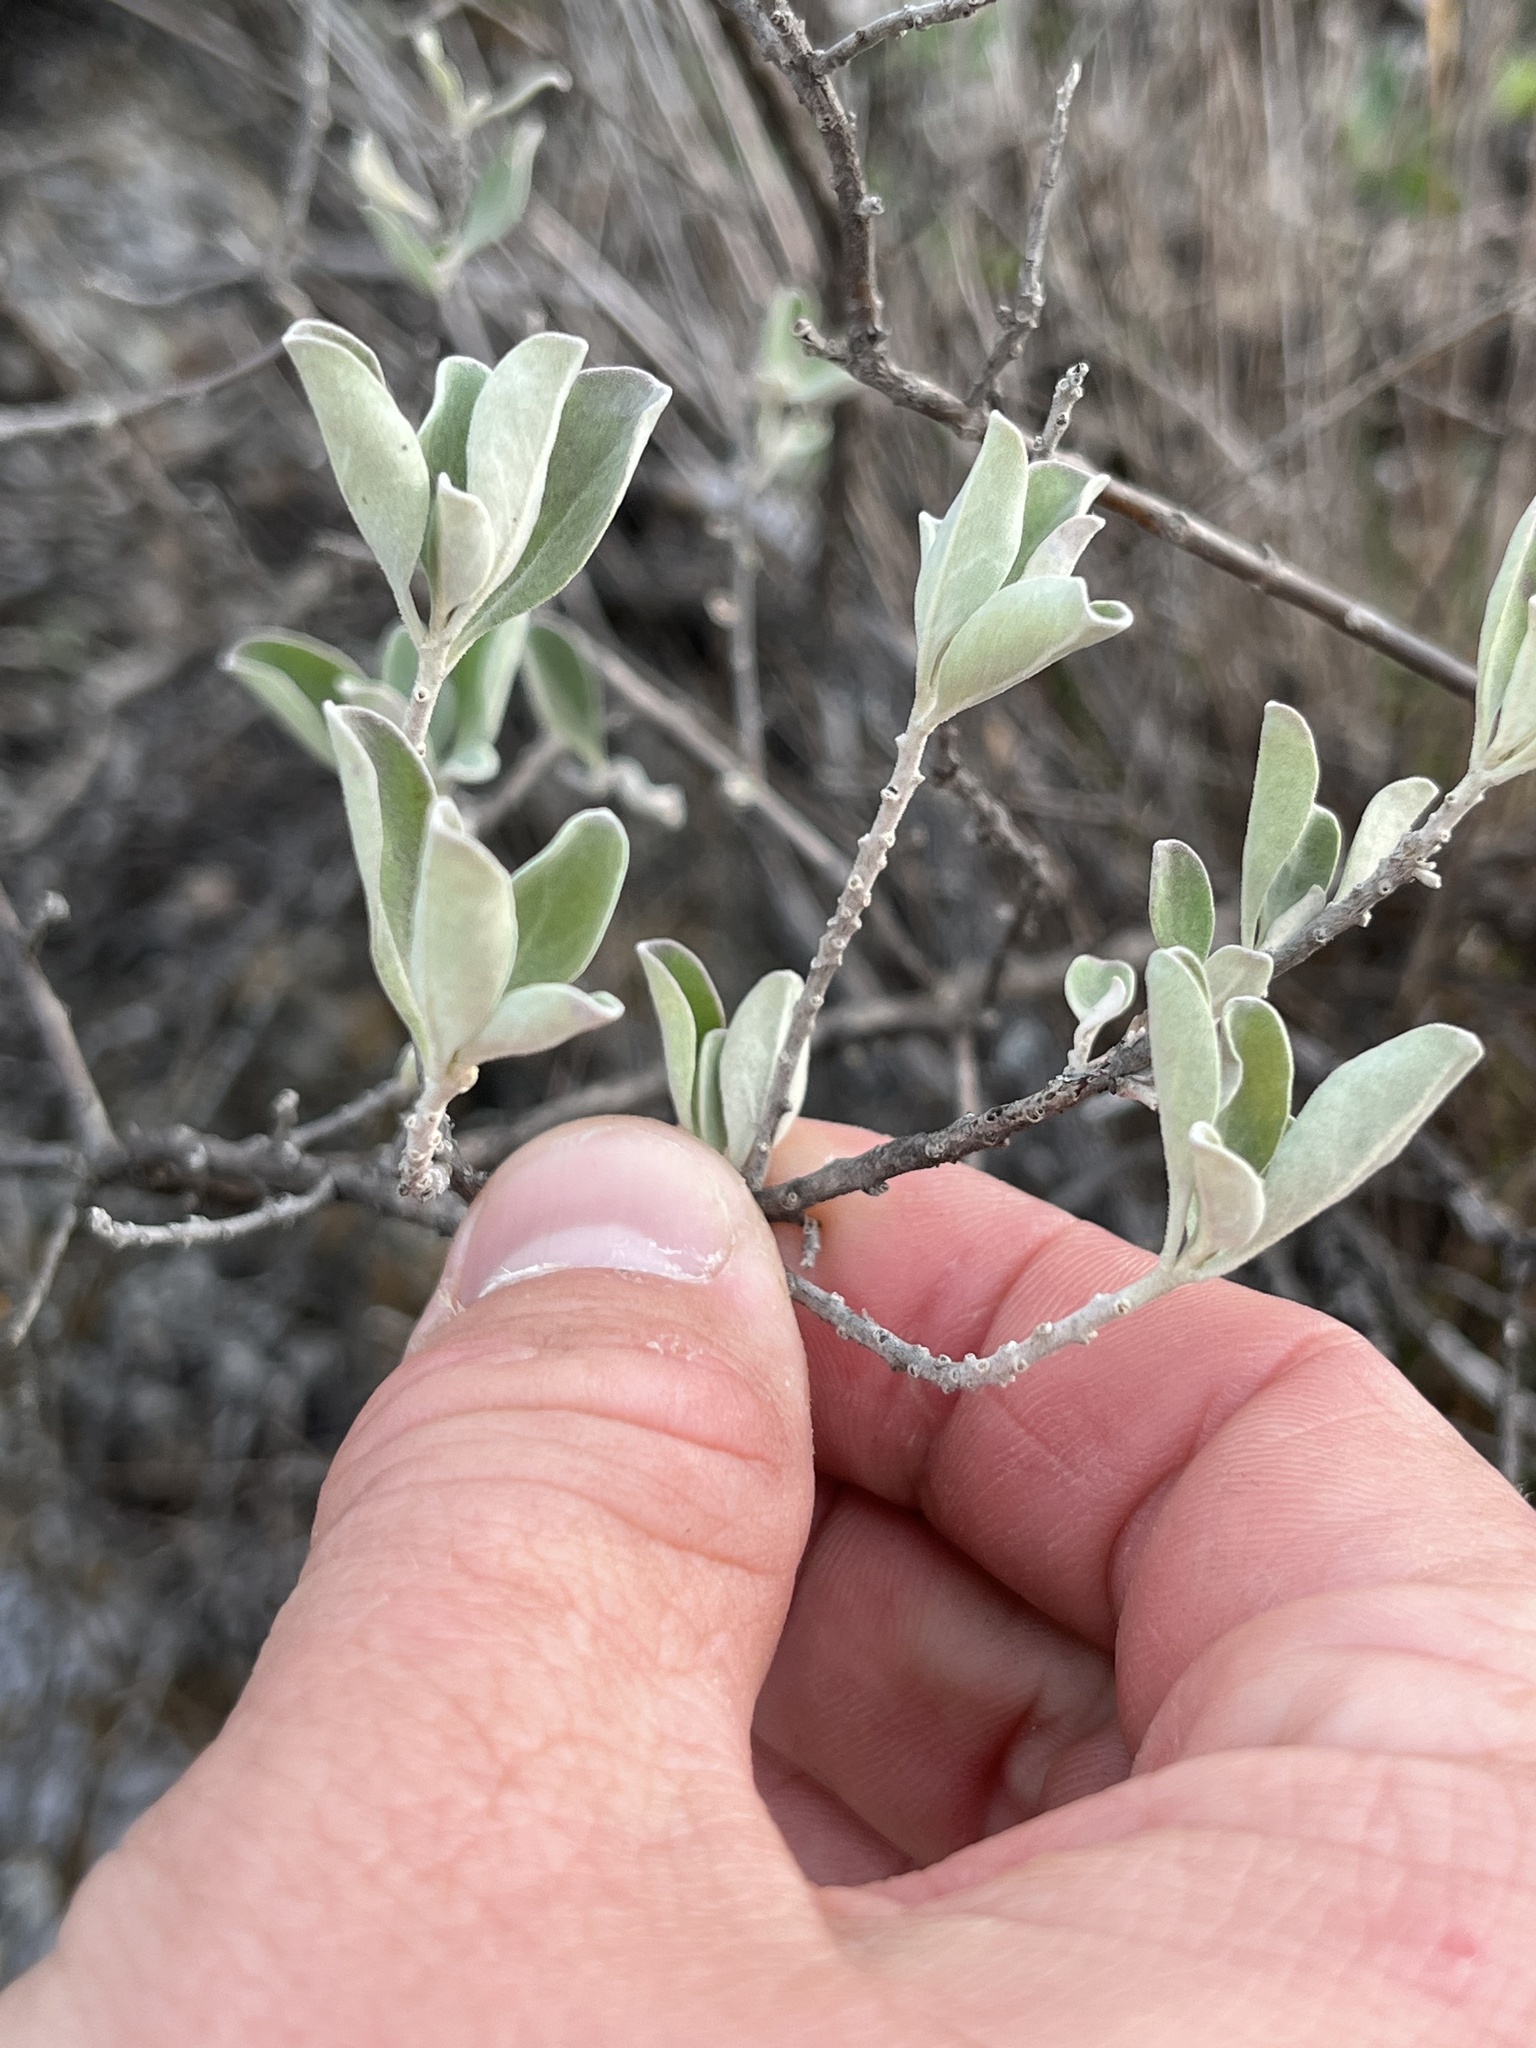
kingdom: Plantae
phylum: Tracheophyta
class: Magnoliopsida
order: Lamiales
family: Scrophulariaceae
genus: Leucophyllum
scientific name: Leucophyllum frutescens
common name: Texas silverleaf
